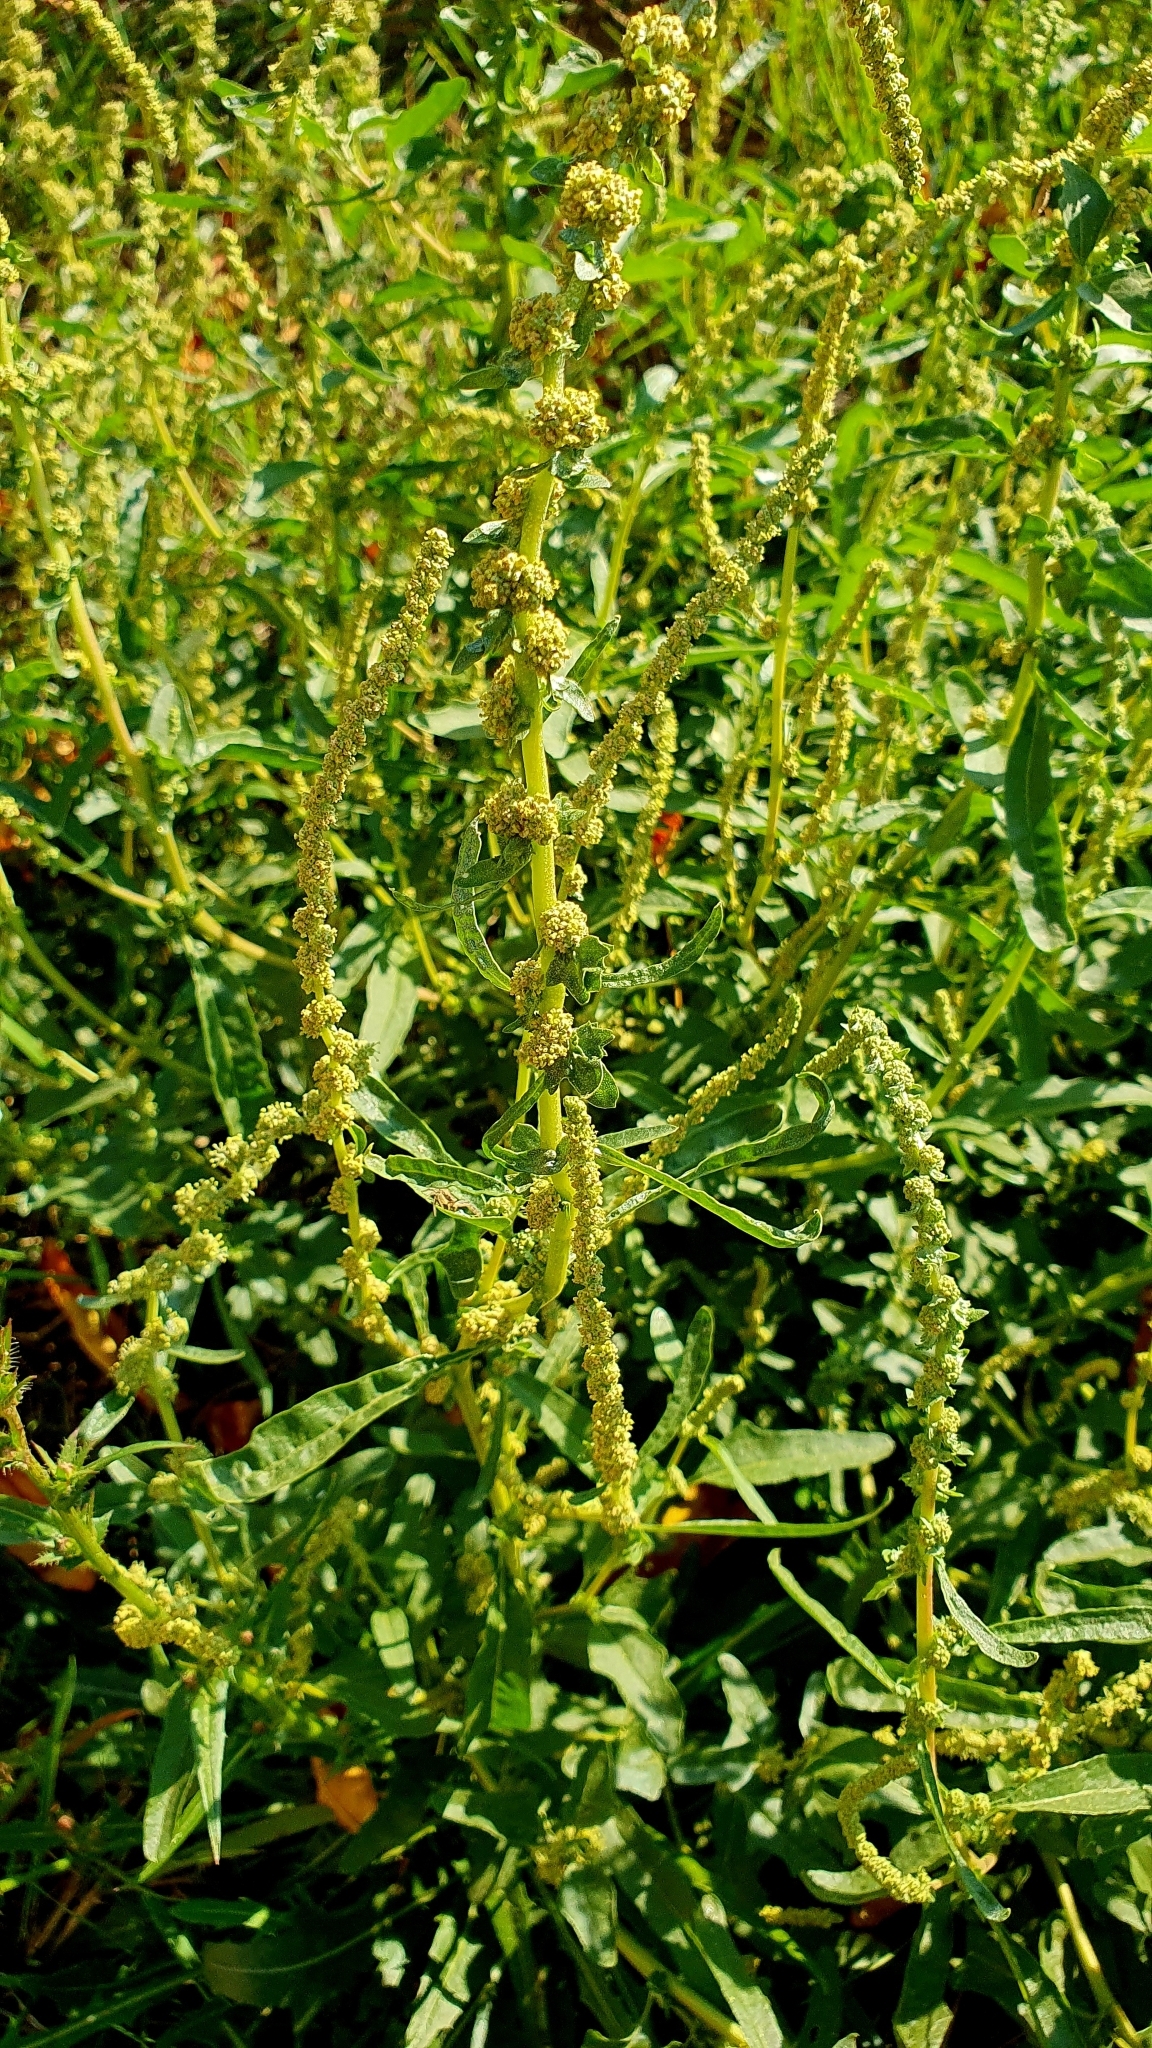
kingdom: Plantae
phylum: Tracheophyta
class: Magnoliopsida
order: Caryophyllales
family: Amaranthaceae
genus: Atriplex
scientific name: Atriplex tatarica
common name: Tatarian orache
